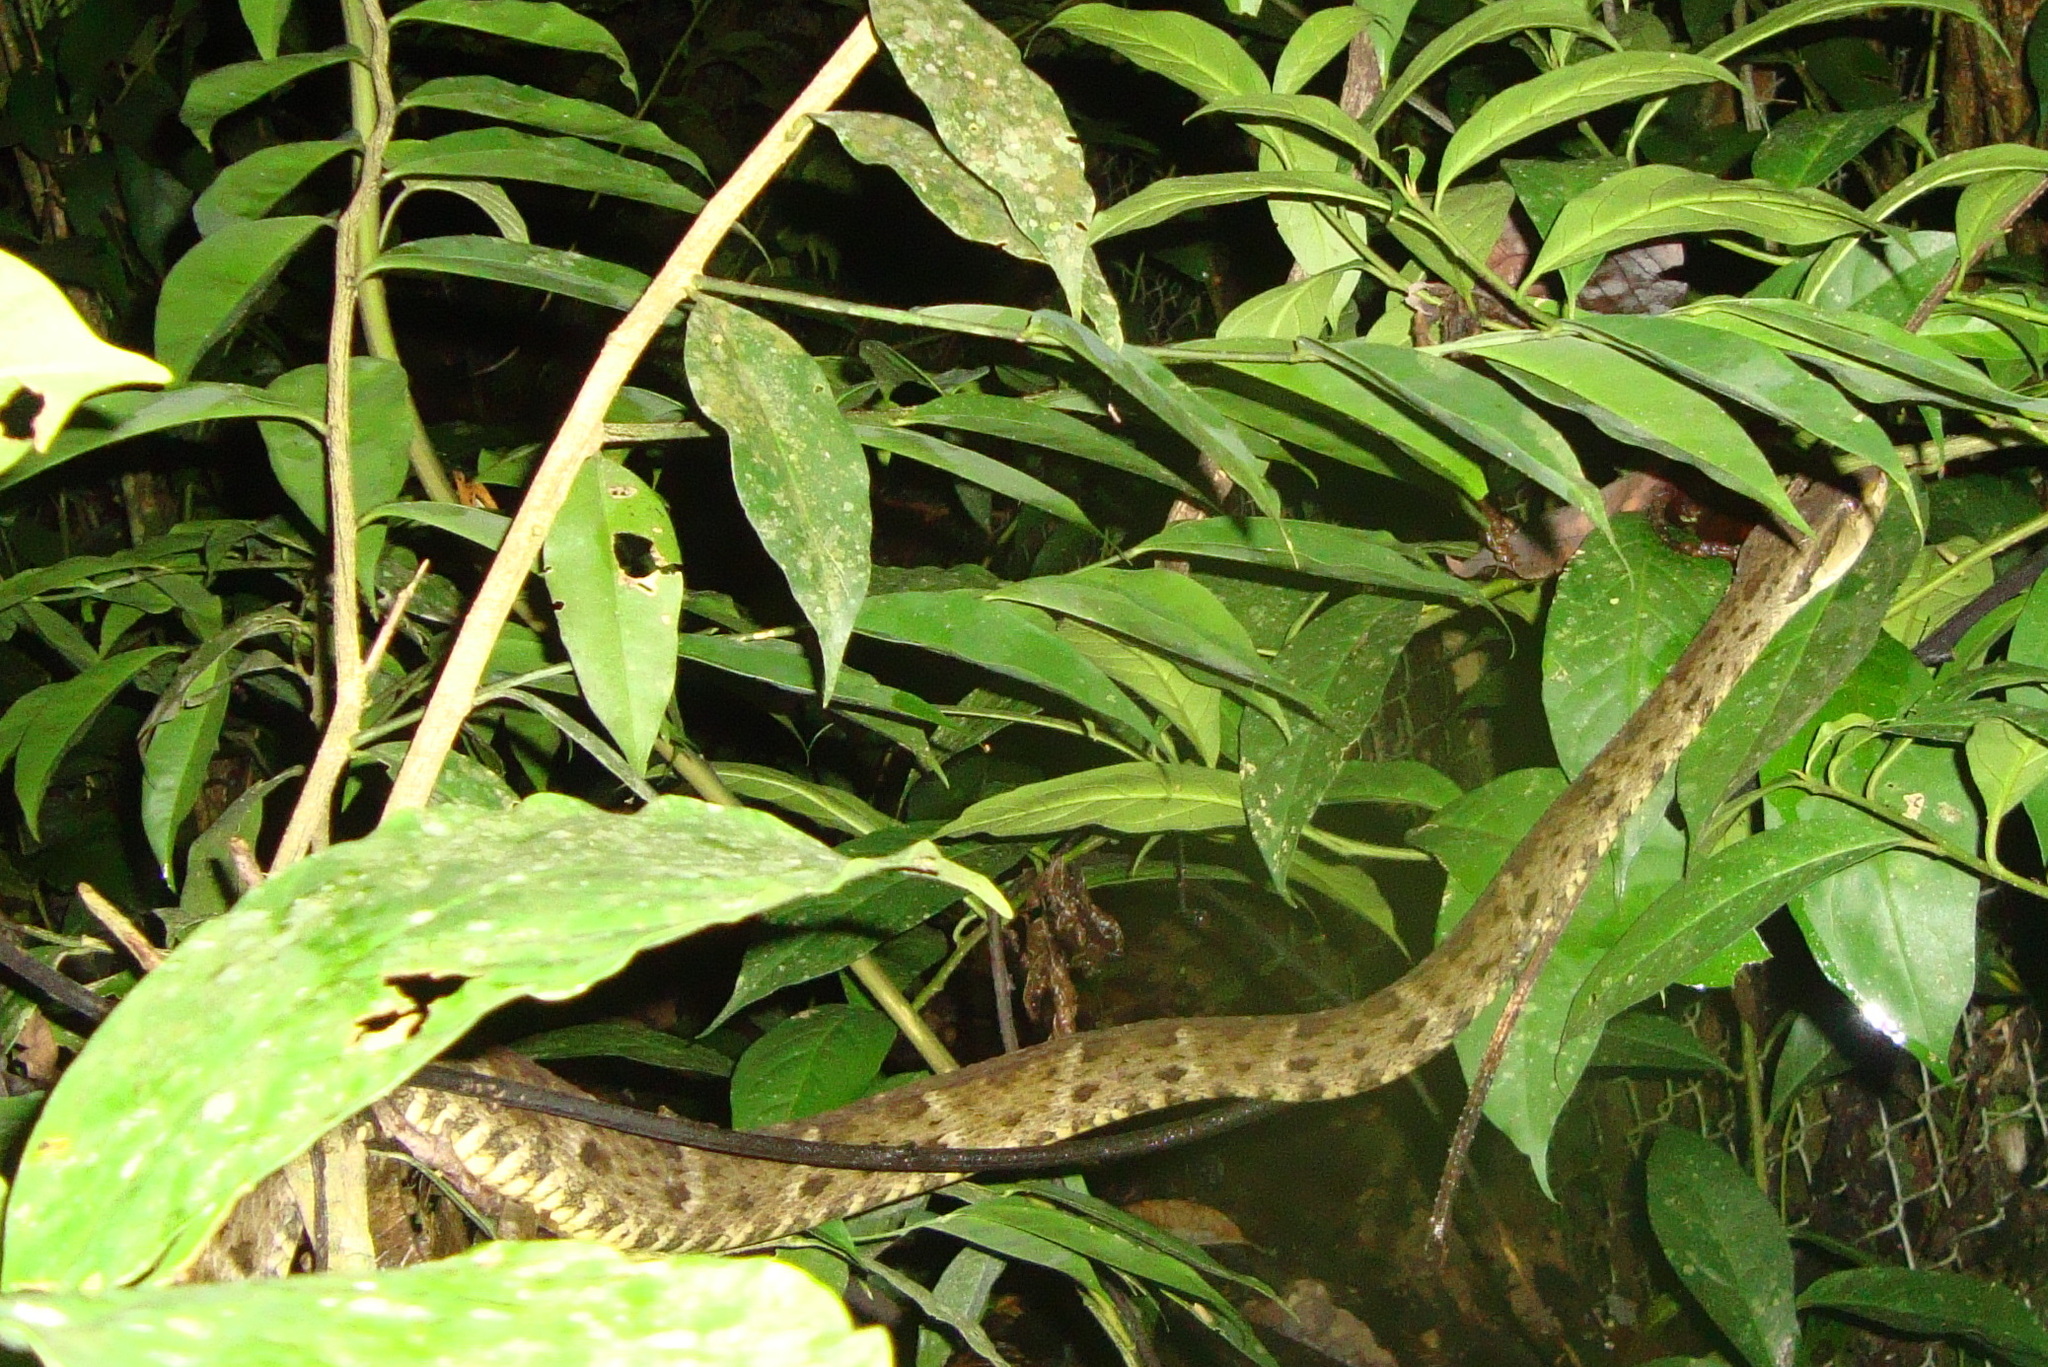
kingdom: Animalia
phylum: Chordata
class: Squamata
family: Viperidae
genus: Bothrops
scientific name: Bothrops atrox
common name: Common lancehead
